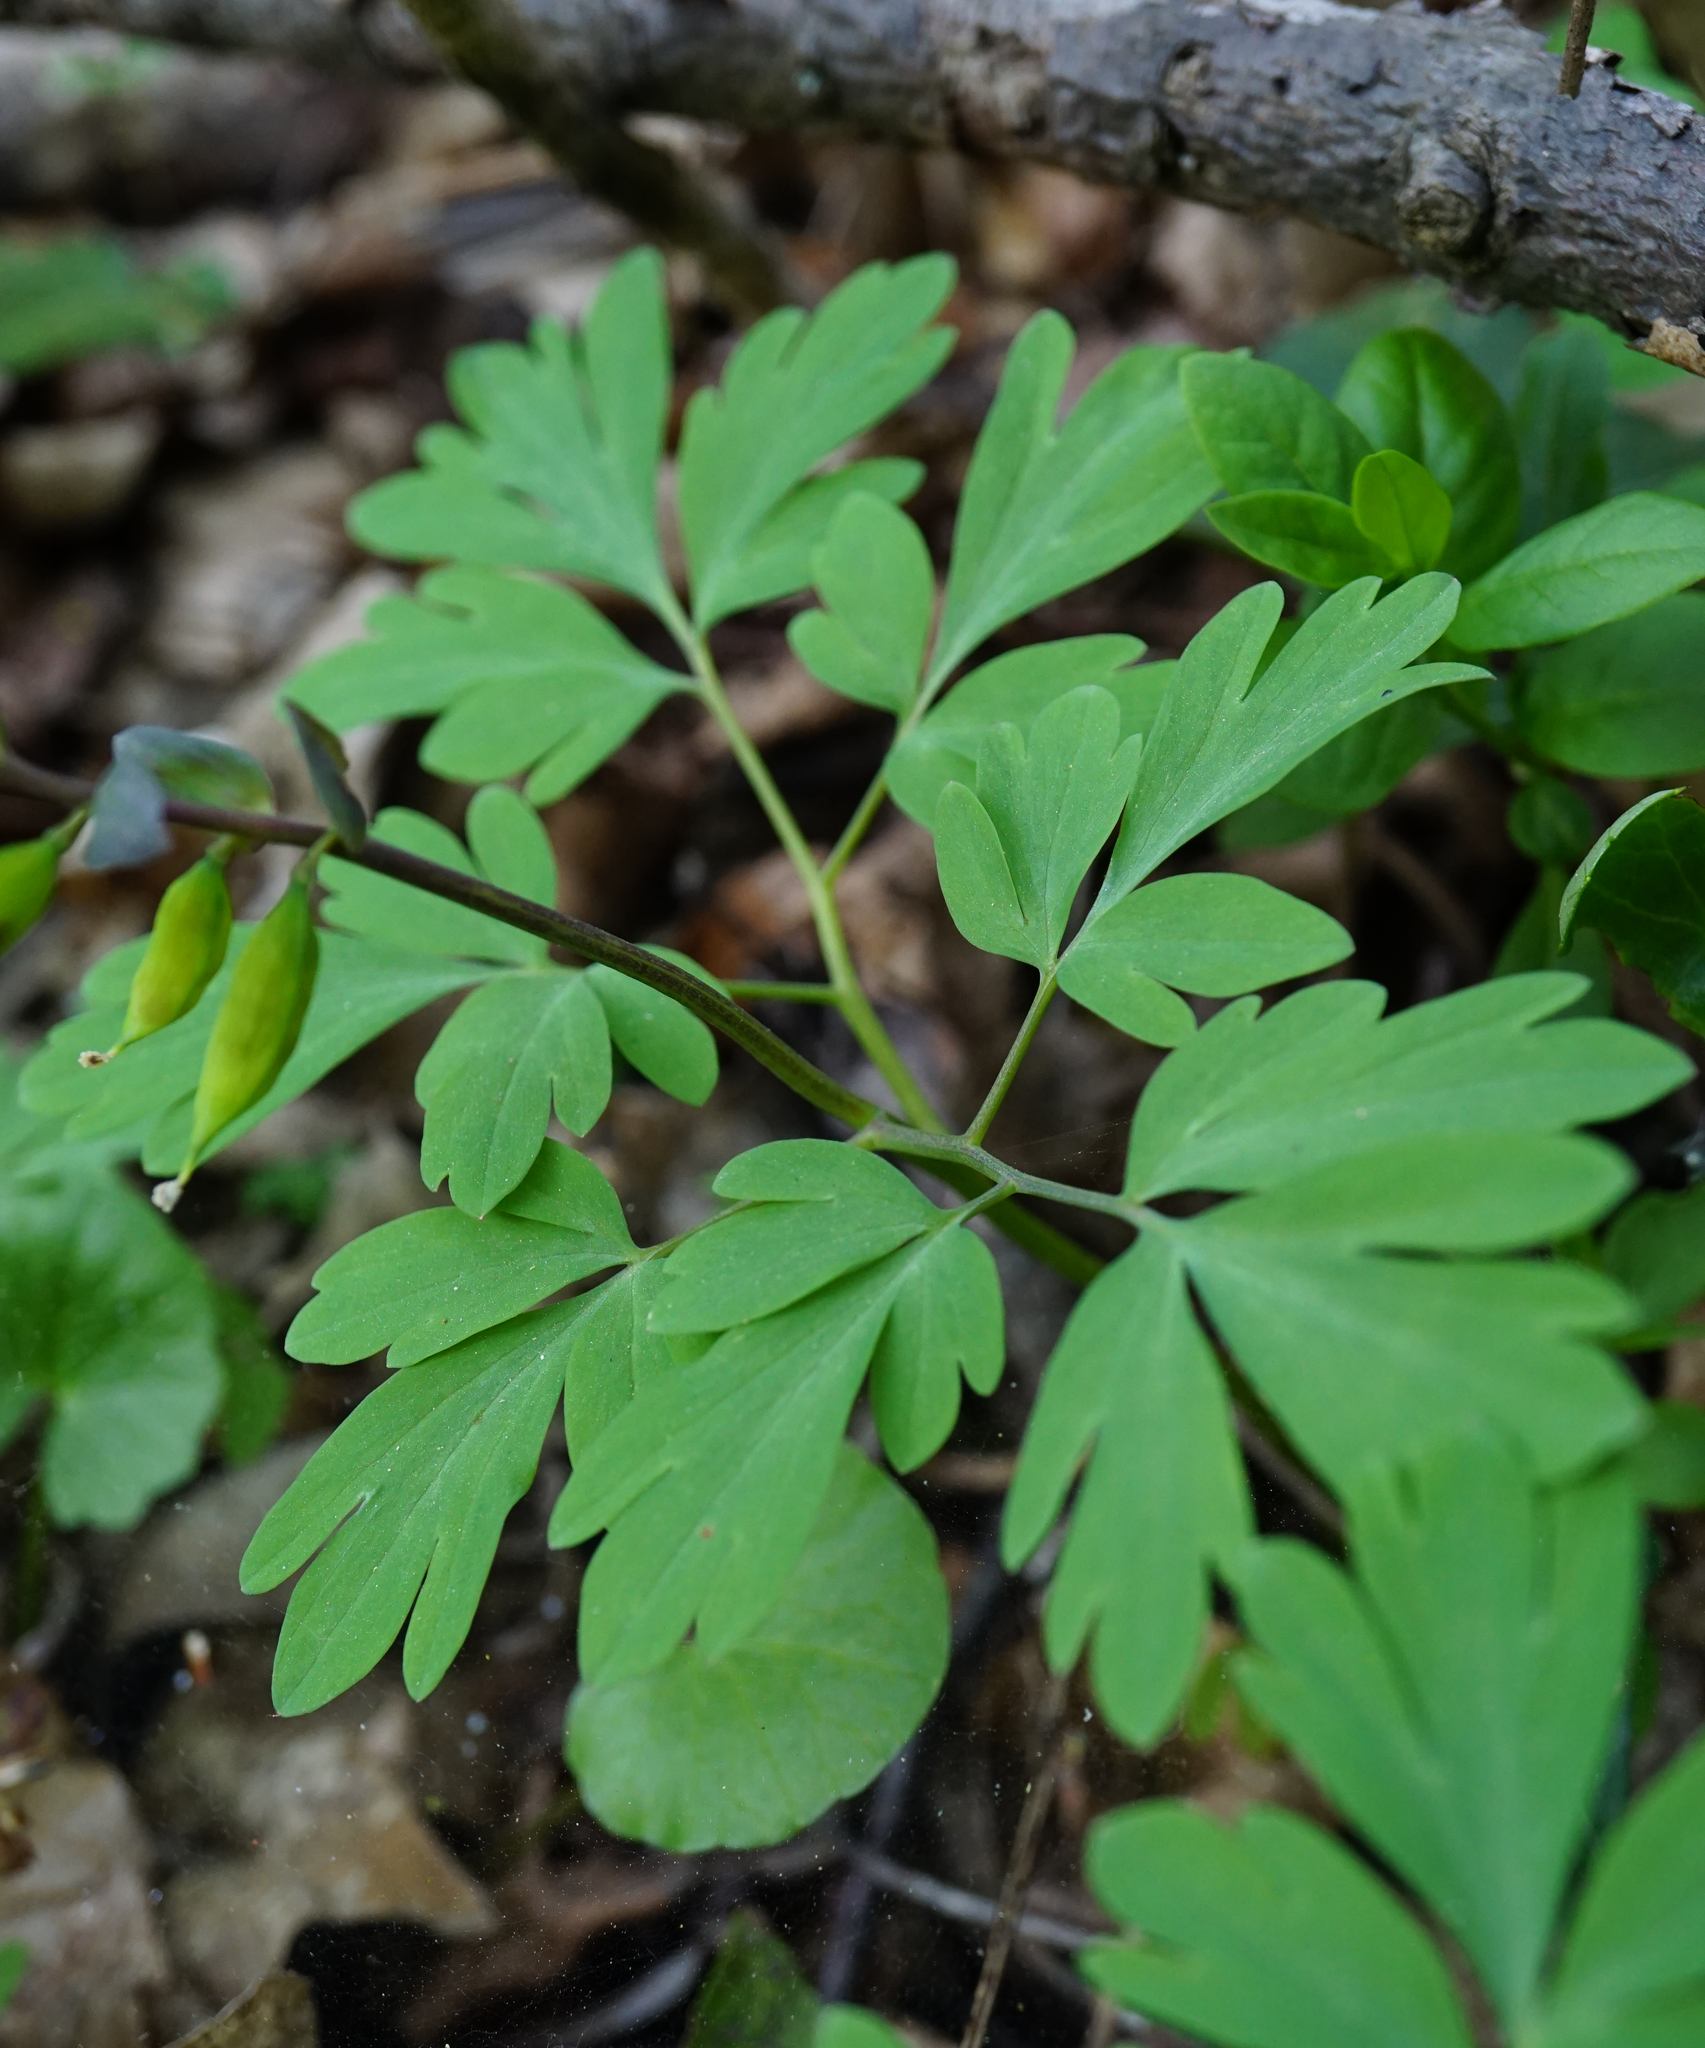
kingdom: Plantae
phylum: Tracheophyta
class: Magnoliopsida
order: Ranunculales
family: Papaveraceae
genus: Corydalis
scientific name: Corydalis cava
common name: Hollowroot
